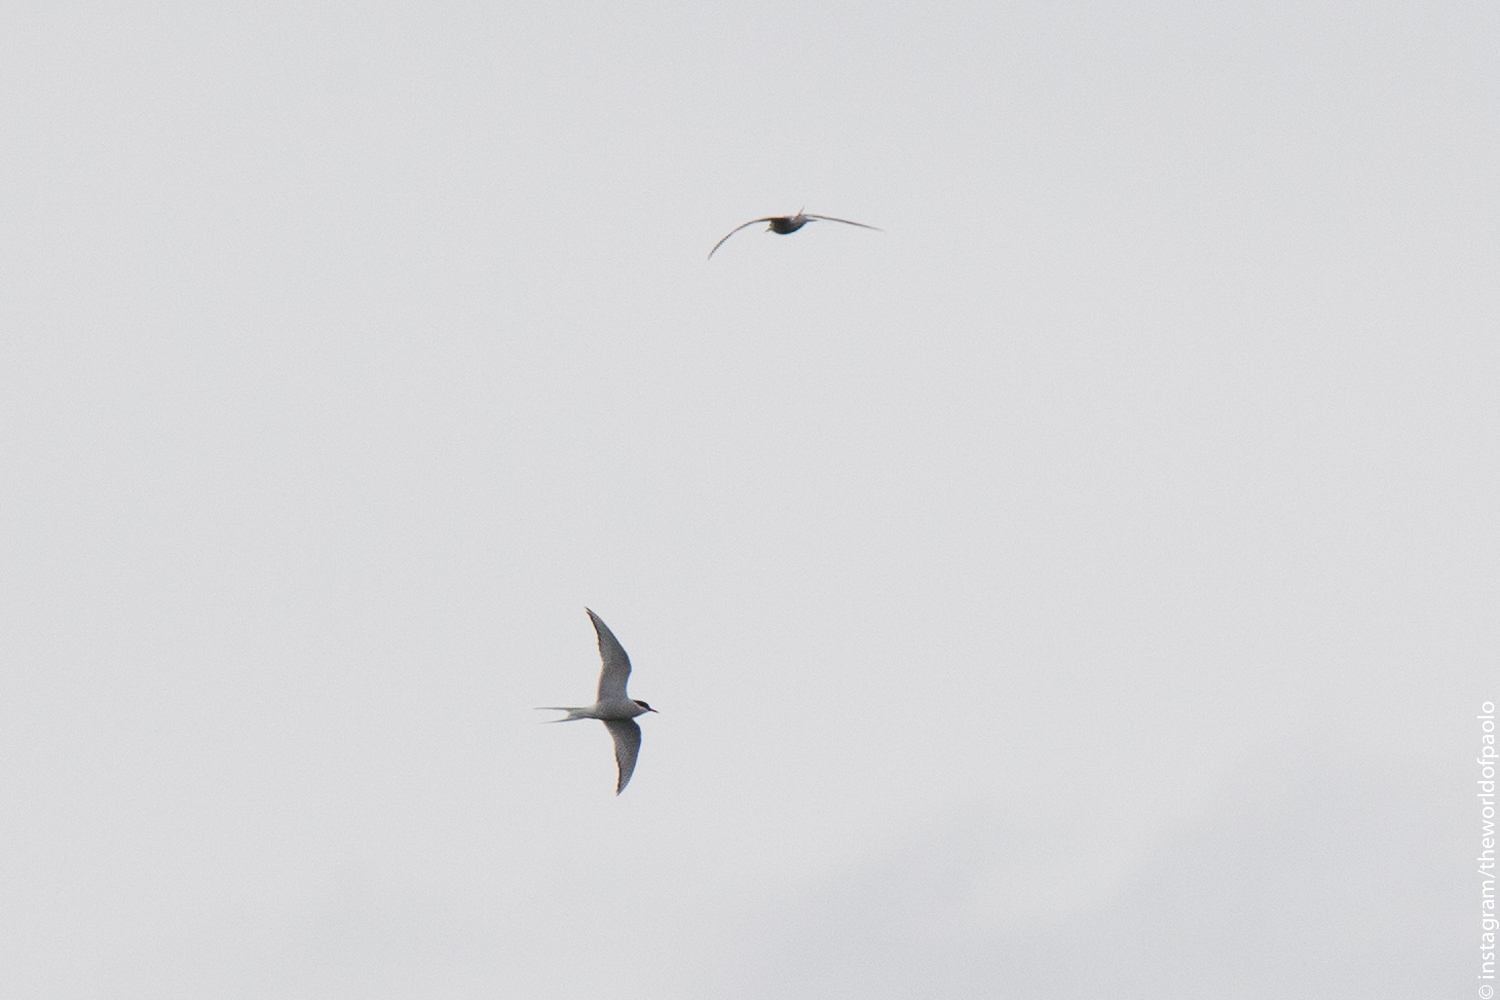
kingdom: Animalia
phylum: Chordata
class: Aves
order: Charadriiformes
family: Laridae
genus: Sterna
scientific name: Sterna paradisaea
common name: Arctic tern
